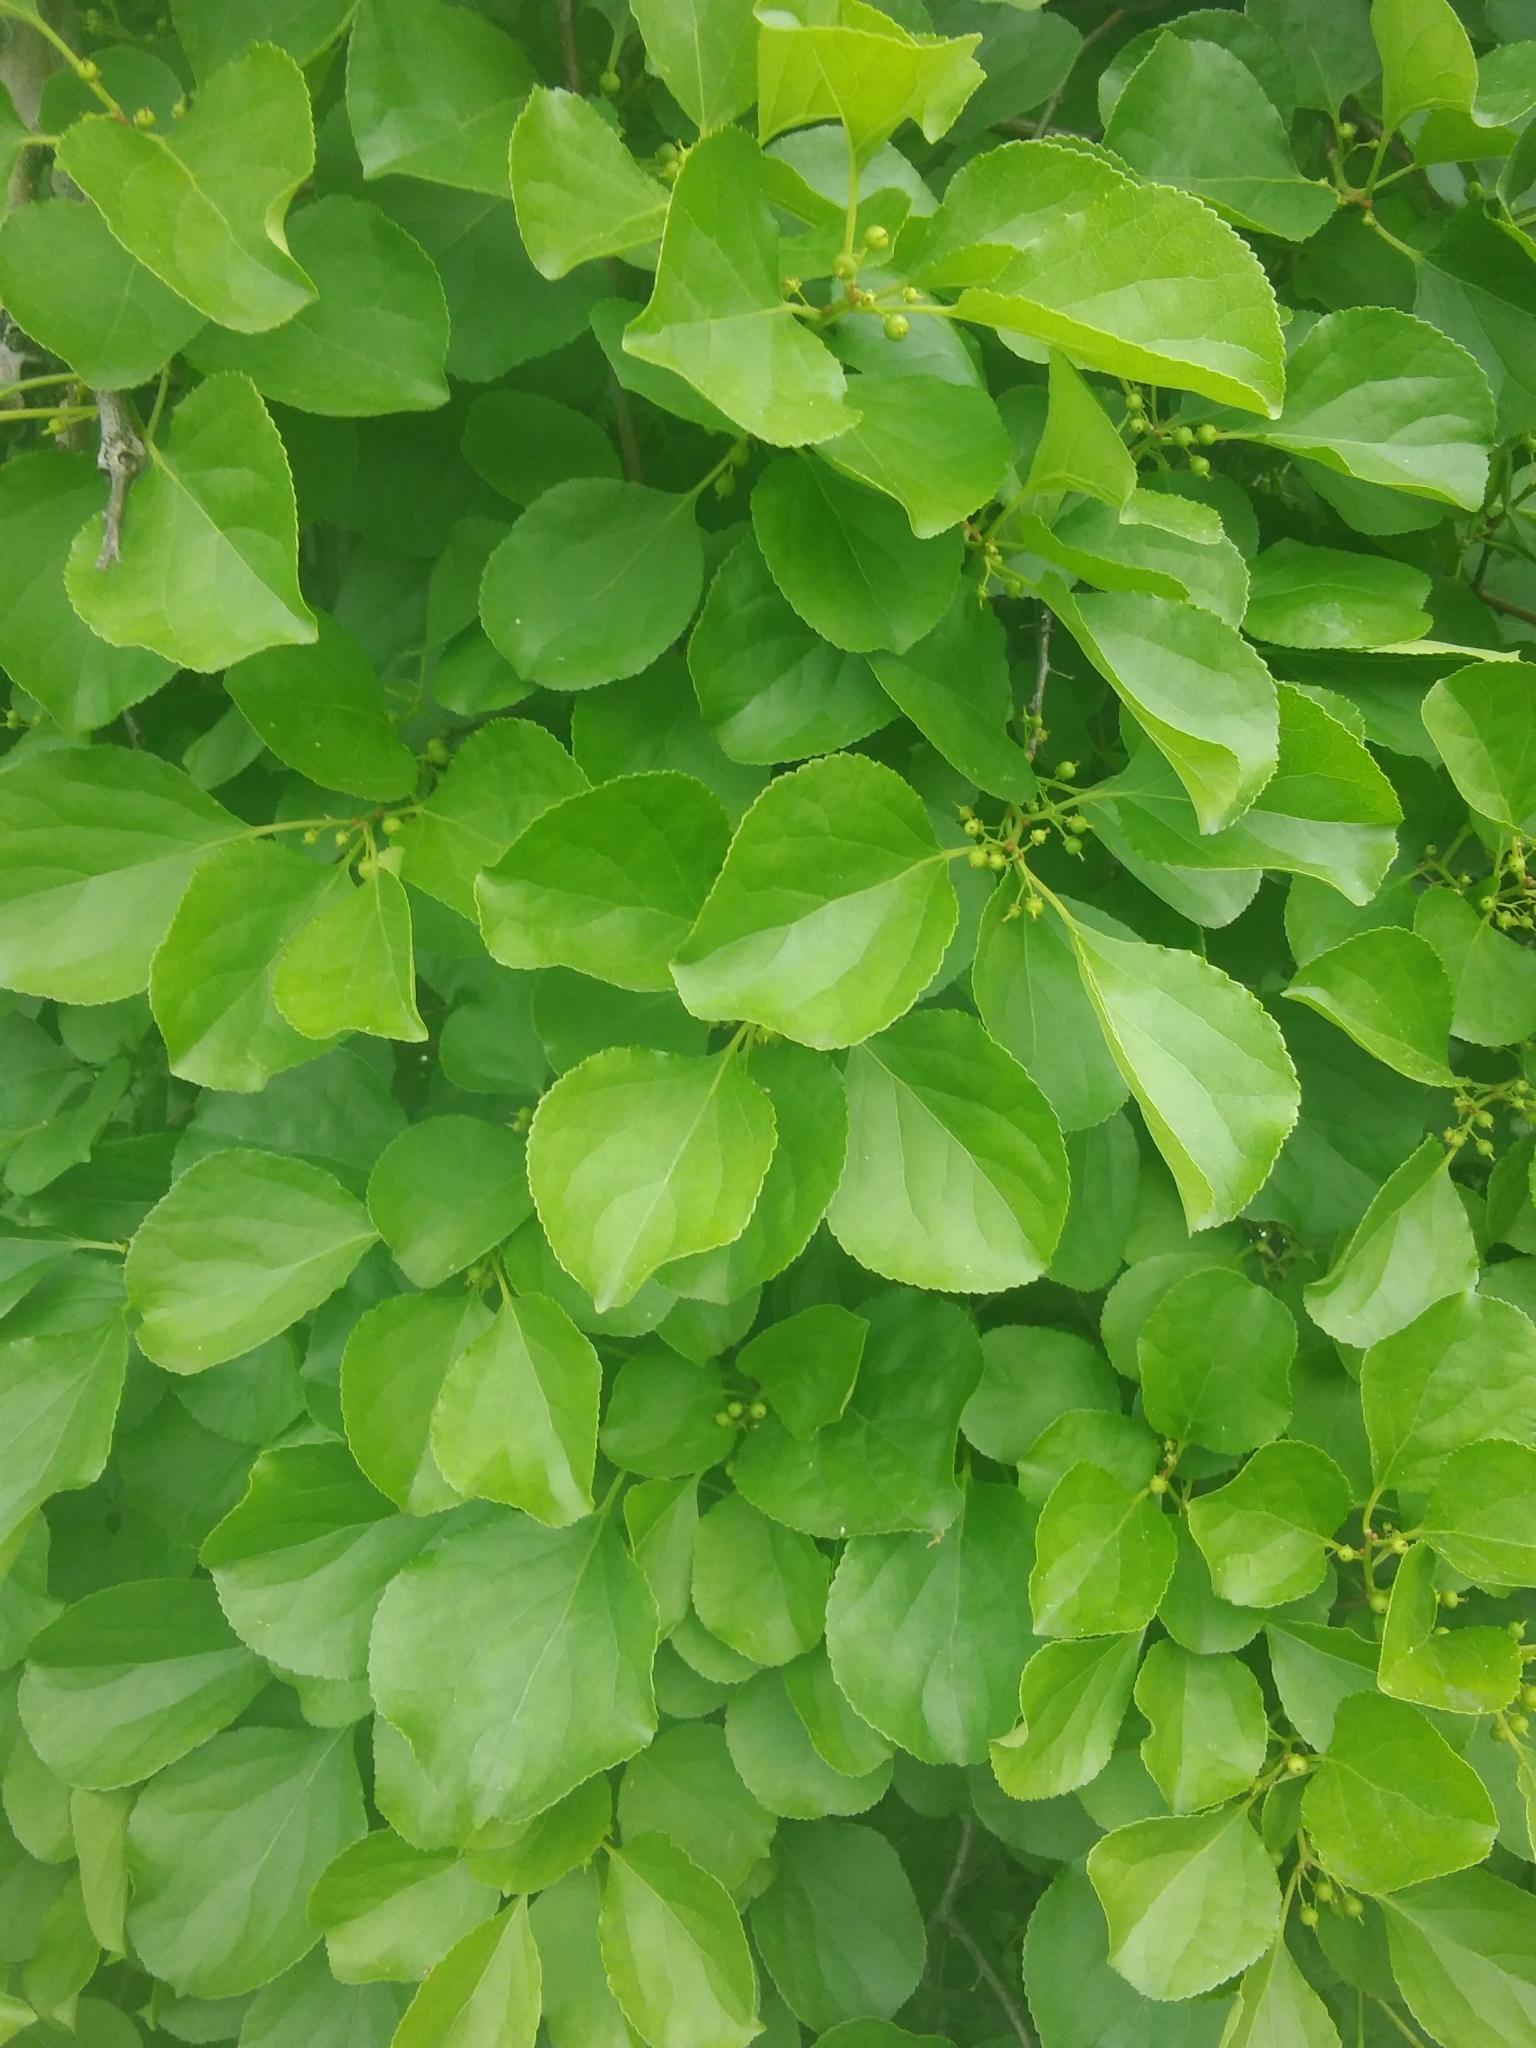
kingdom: Plantae
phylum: Tracheophyta
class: Magnoliopsida
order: Celastrales
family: Celastraceae
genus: Celastrus
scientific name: Celastrus orbiculatus
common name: Oriental bittersweet
